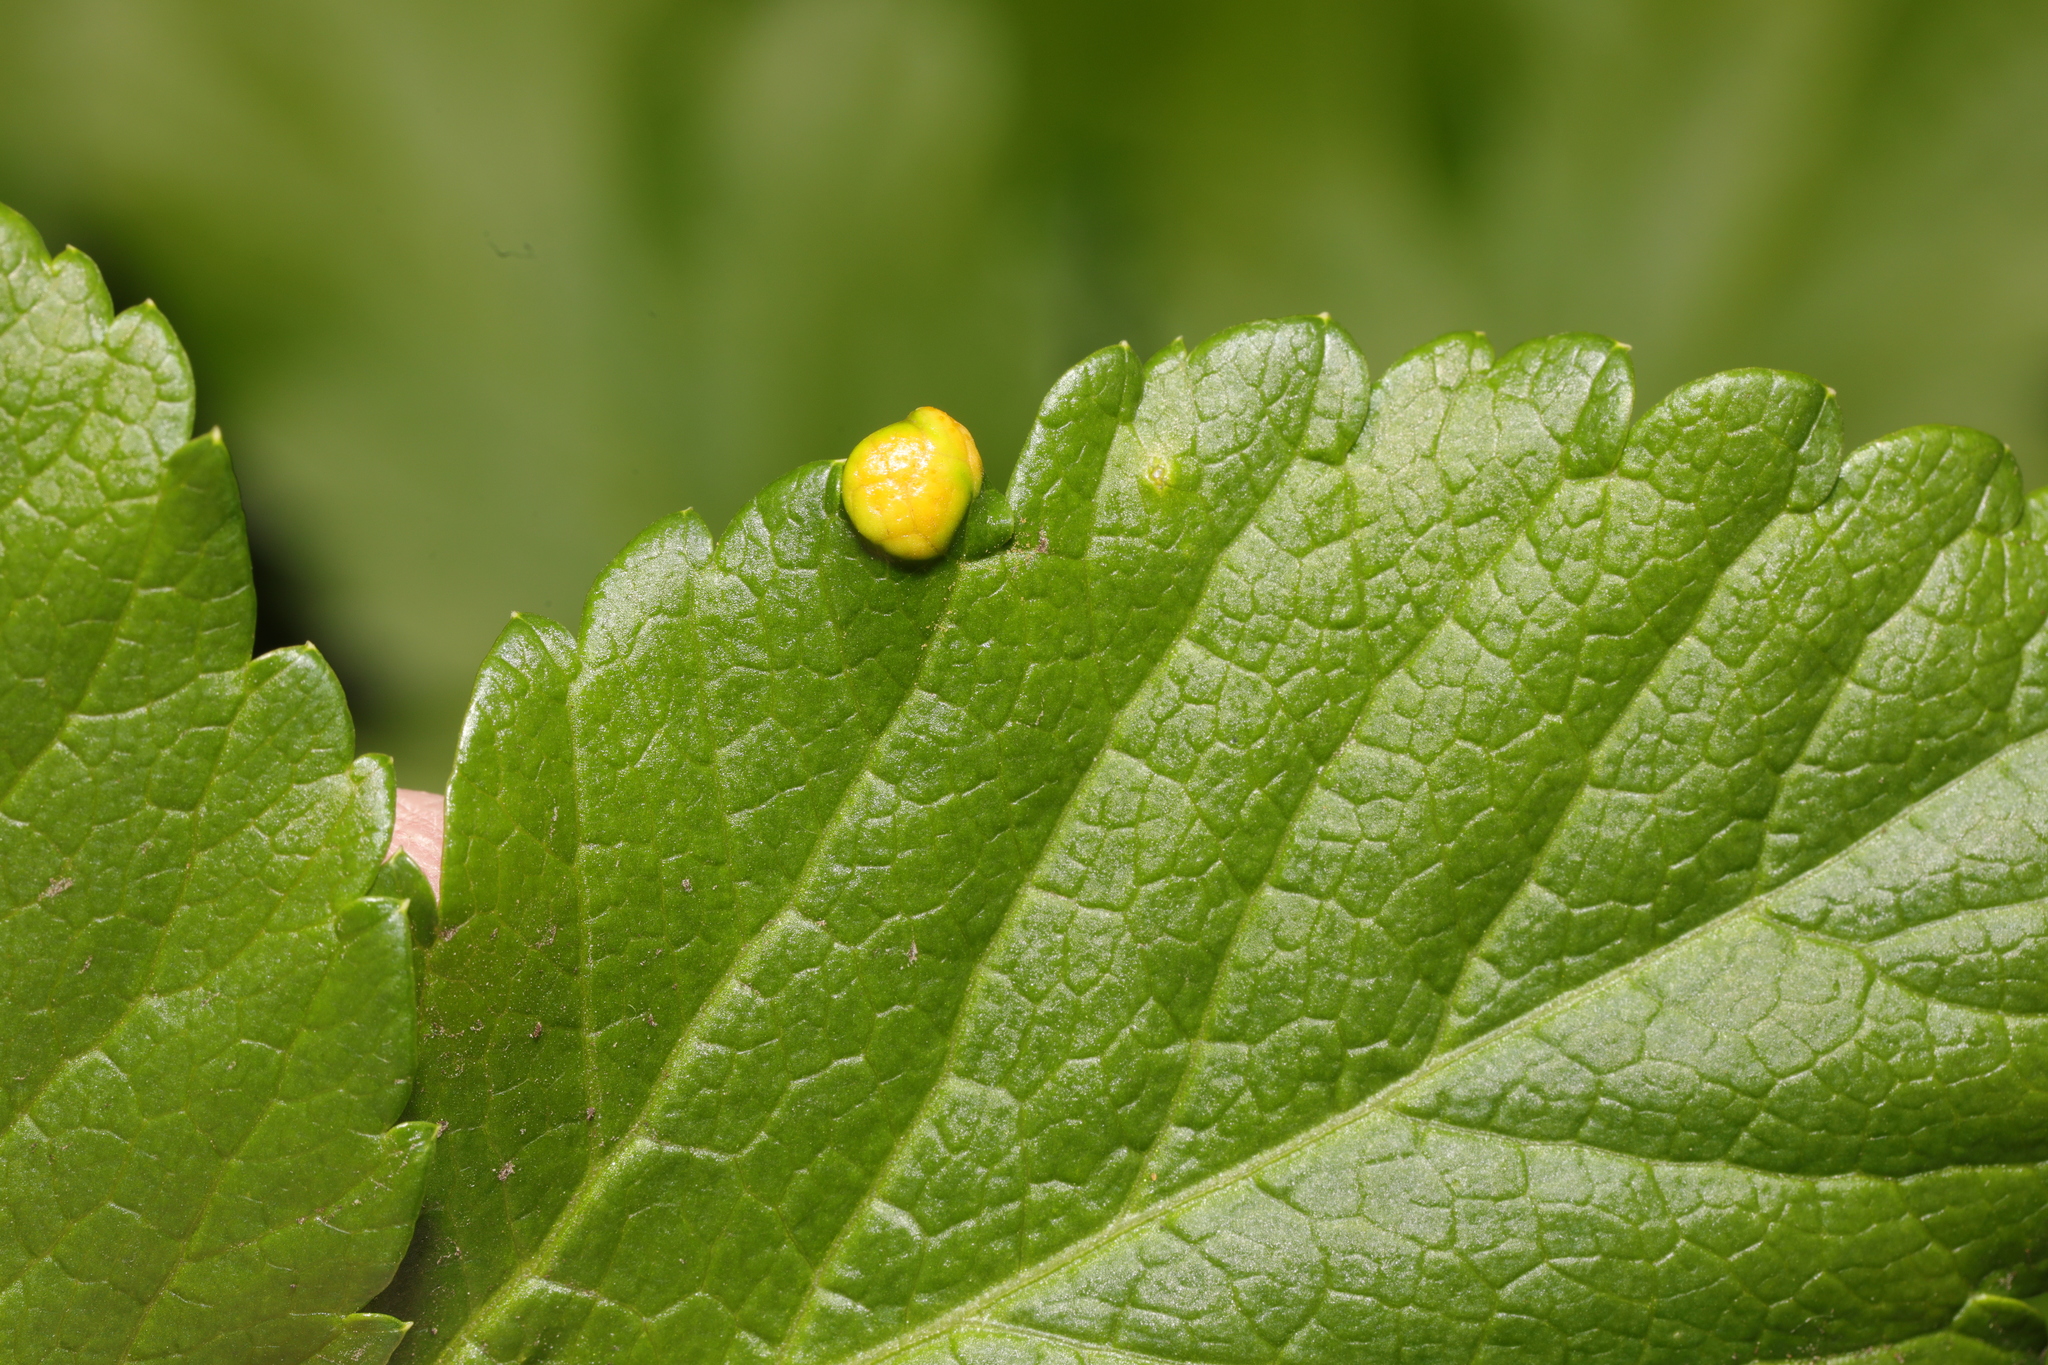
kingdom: Fungi
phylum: Basidiomycota
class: Pucciniomycetes
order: Pucciniales
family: Pucciniaceae
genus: Puccinia
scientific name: Puccinia smyrnii
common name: Alexanders rust
